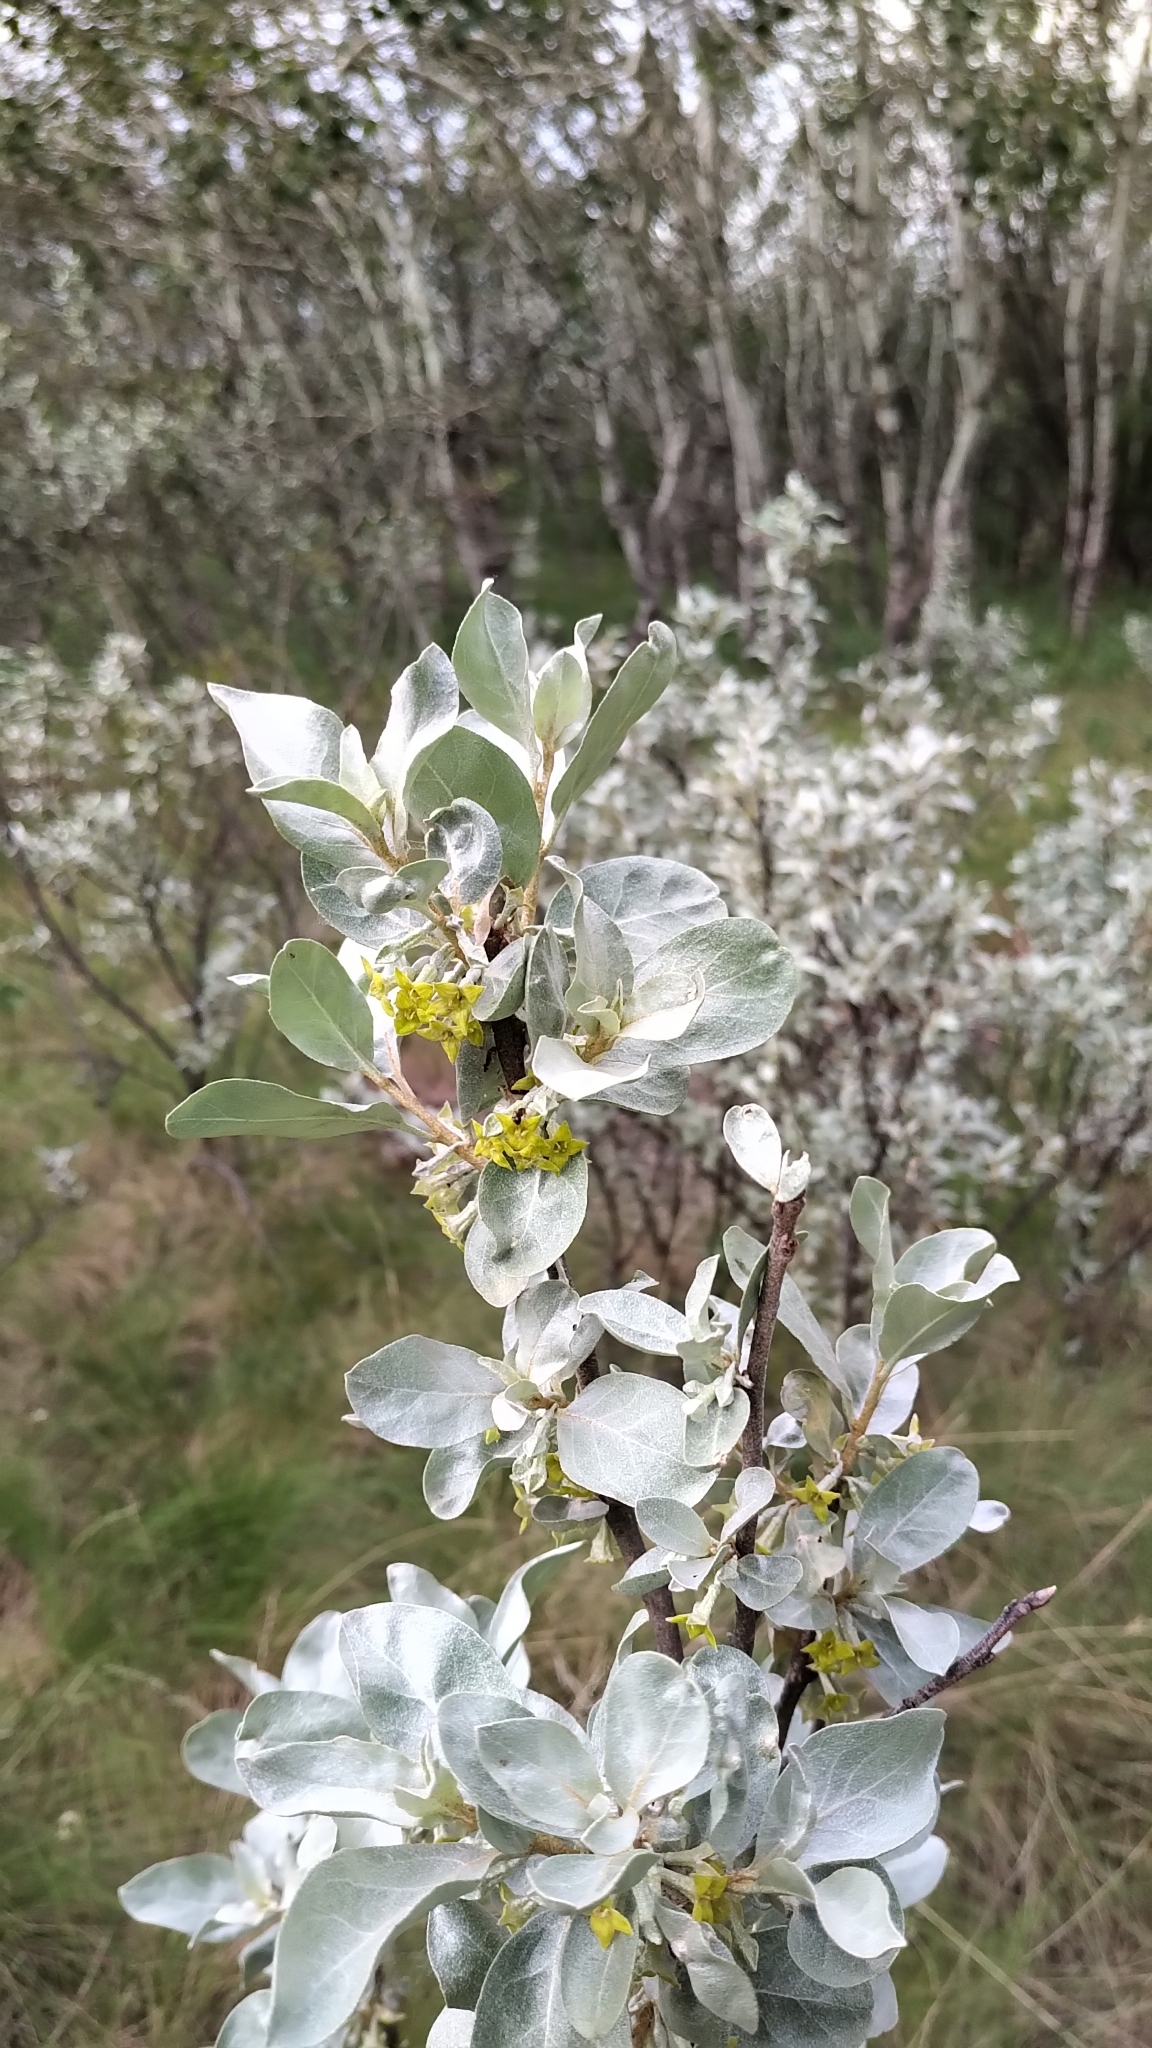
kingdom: Plantae
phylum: Tracheophyta
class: Magnoliopsida
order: Rosales
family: Elaeagnaceae
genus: Elaeagnus
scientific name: Elaeagnus commutata
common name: Silverberry
